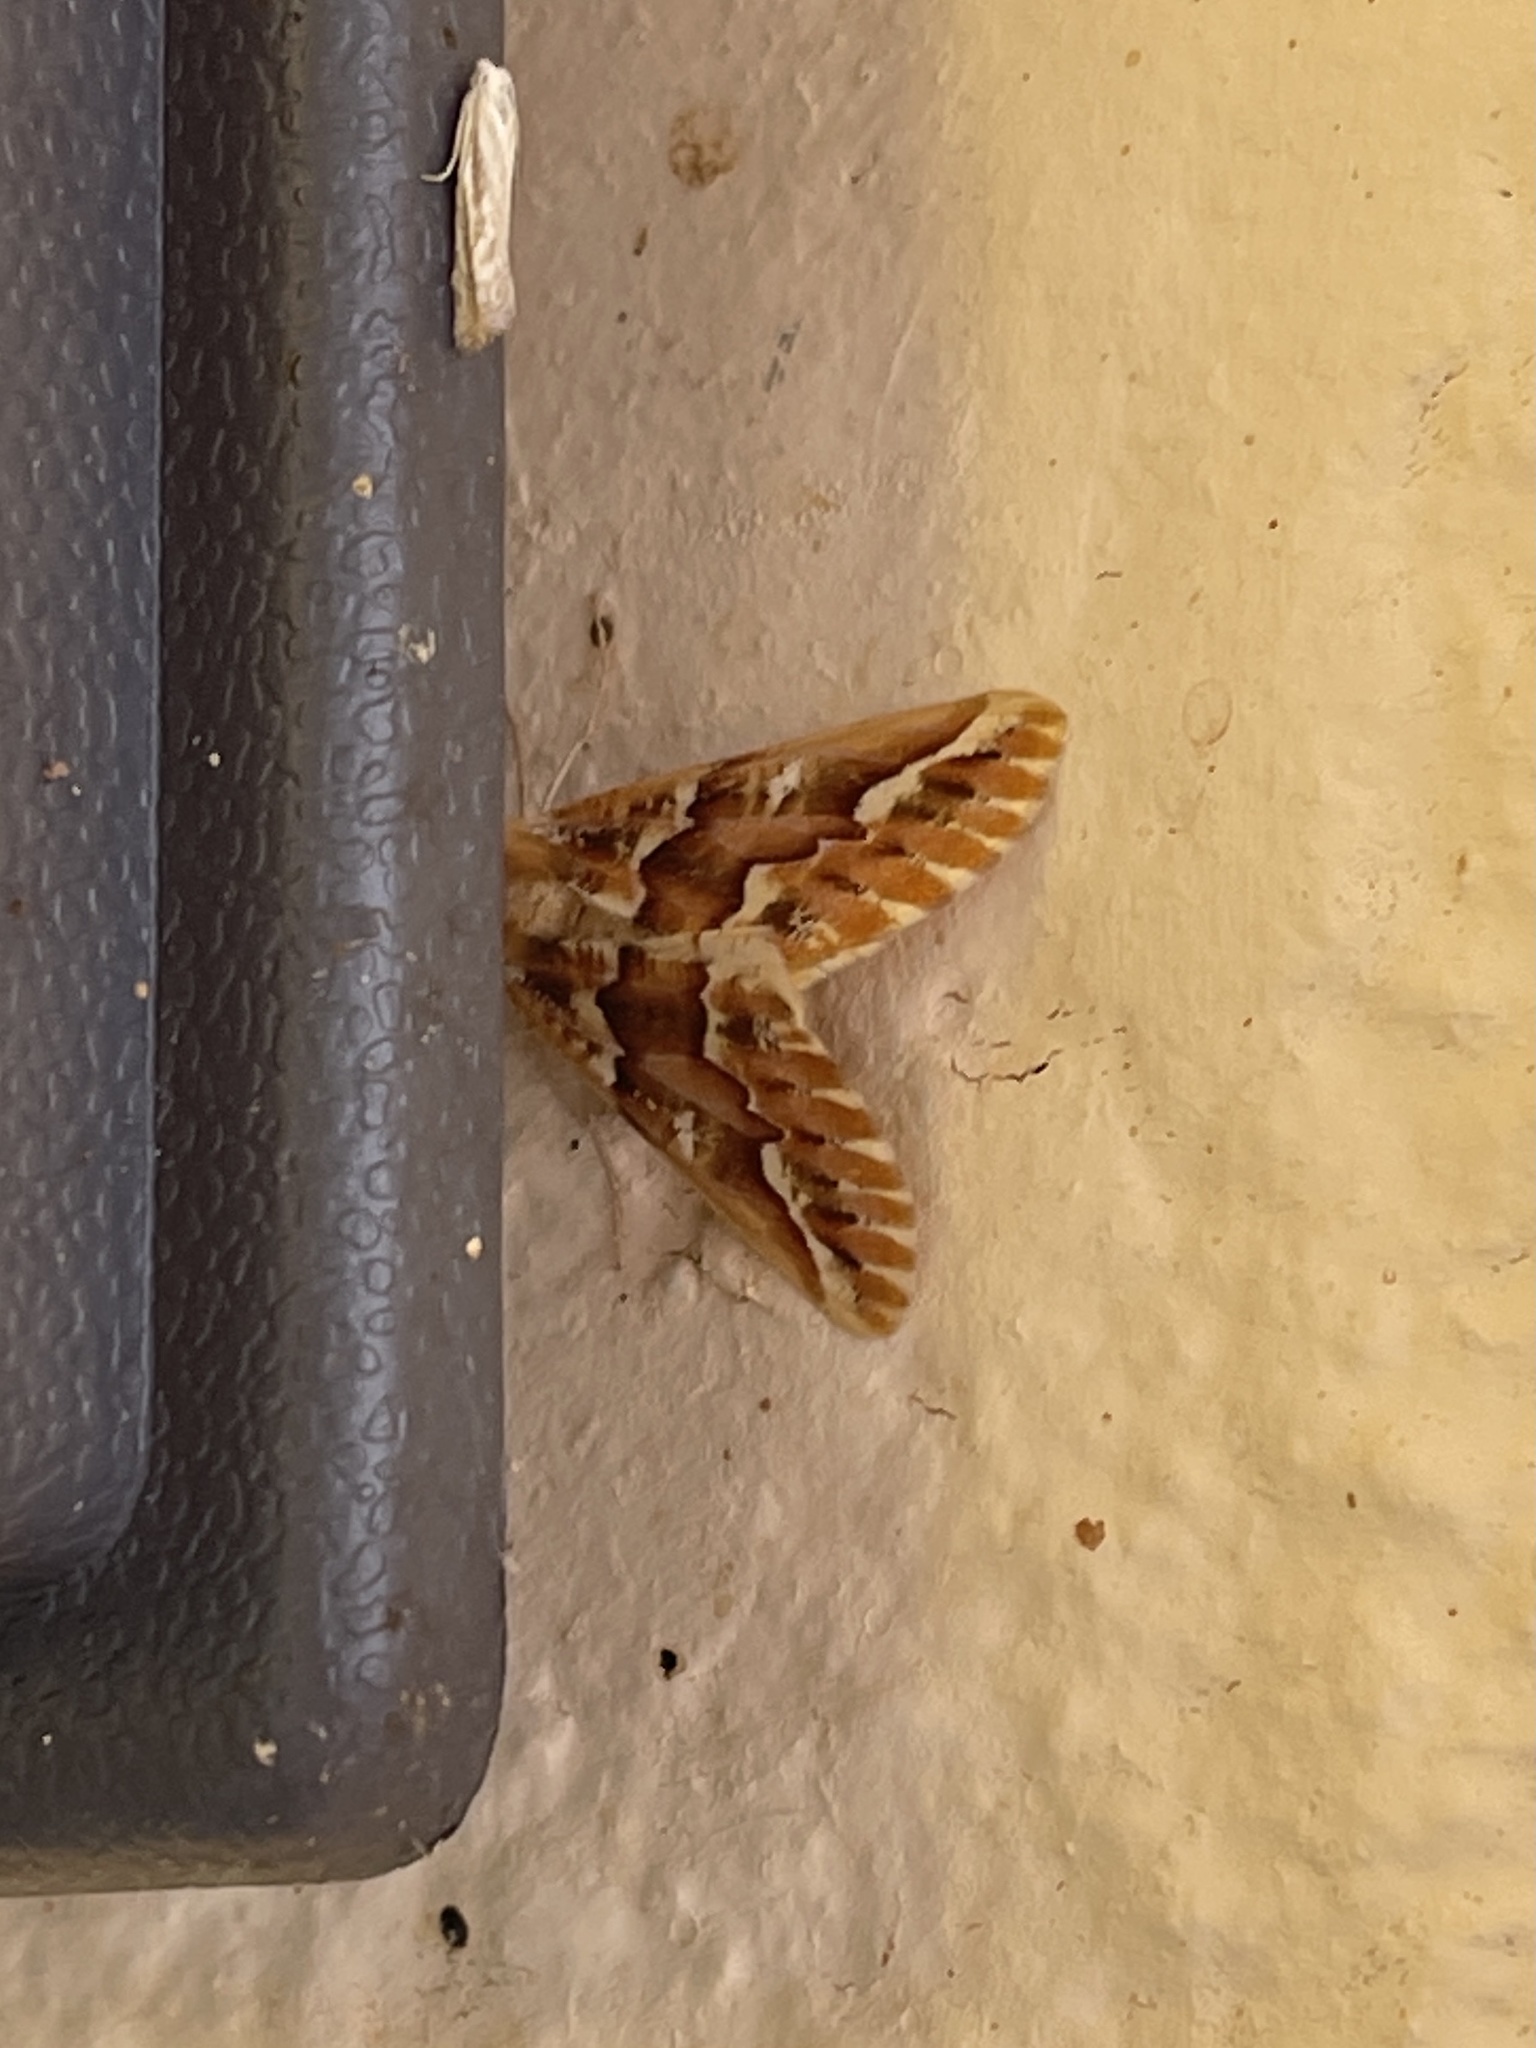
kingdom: Animalia
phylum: Arthropoda
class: Insecta
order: Lepidoptera
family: Geometridae
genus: Caripeta
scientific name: Caripeta aequaliaria
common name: Red girdle moth
